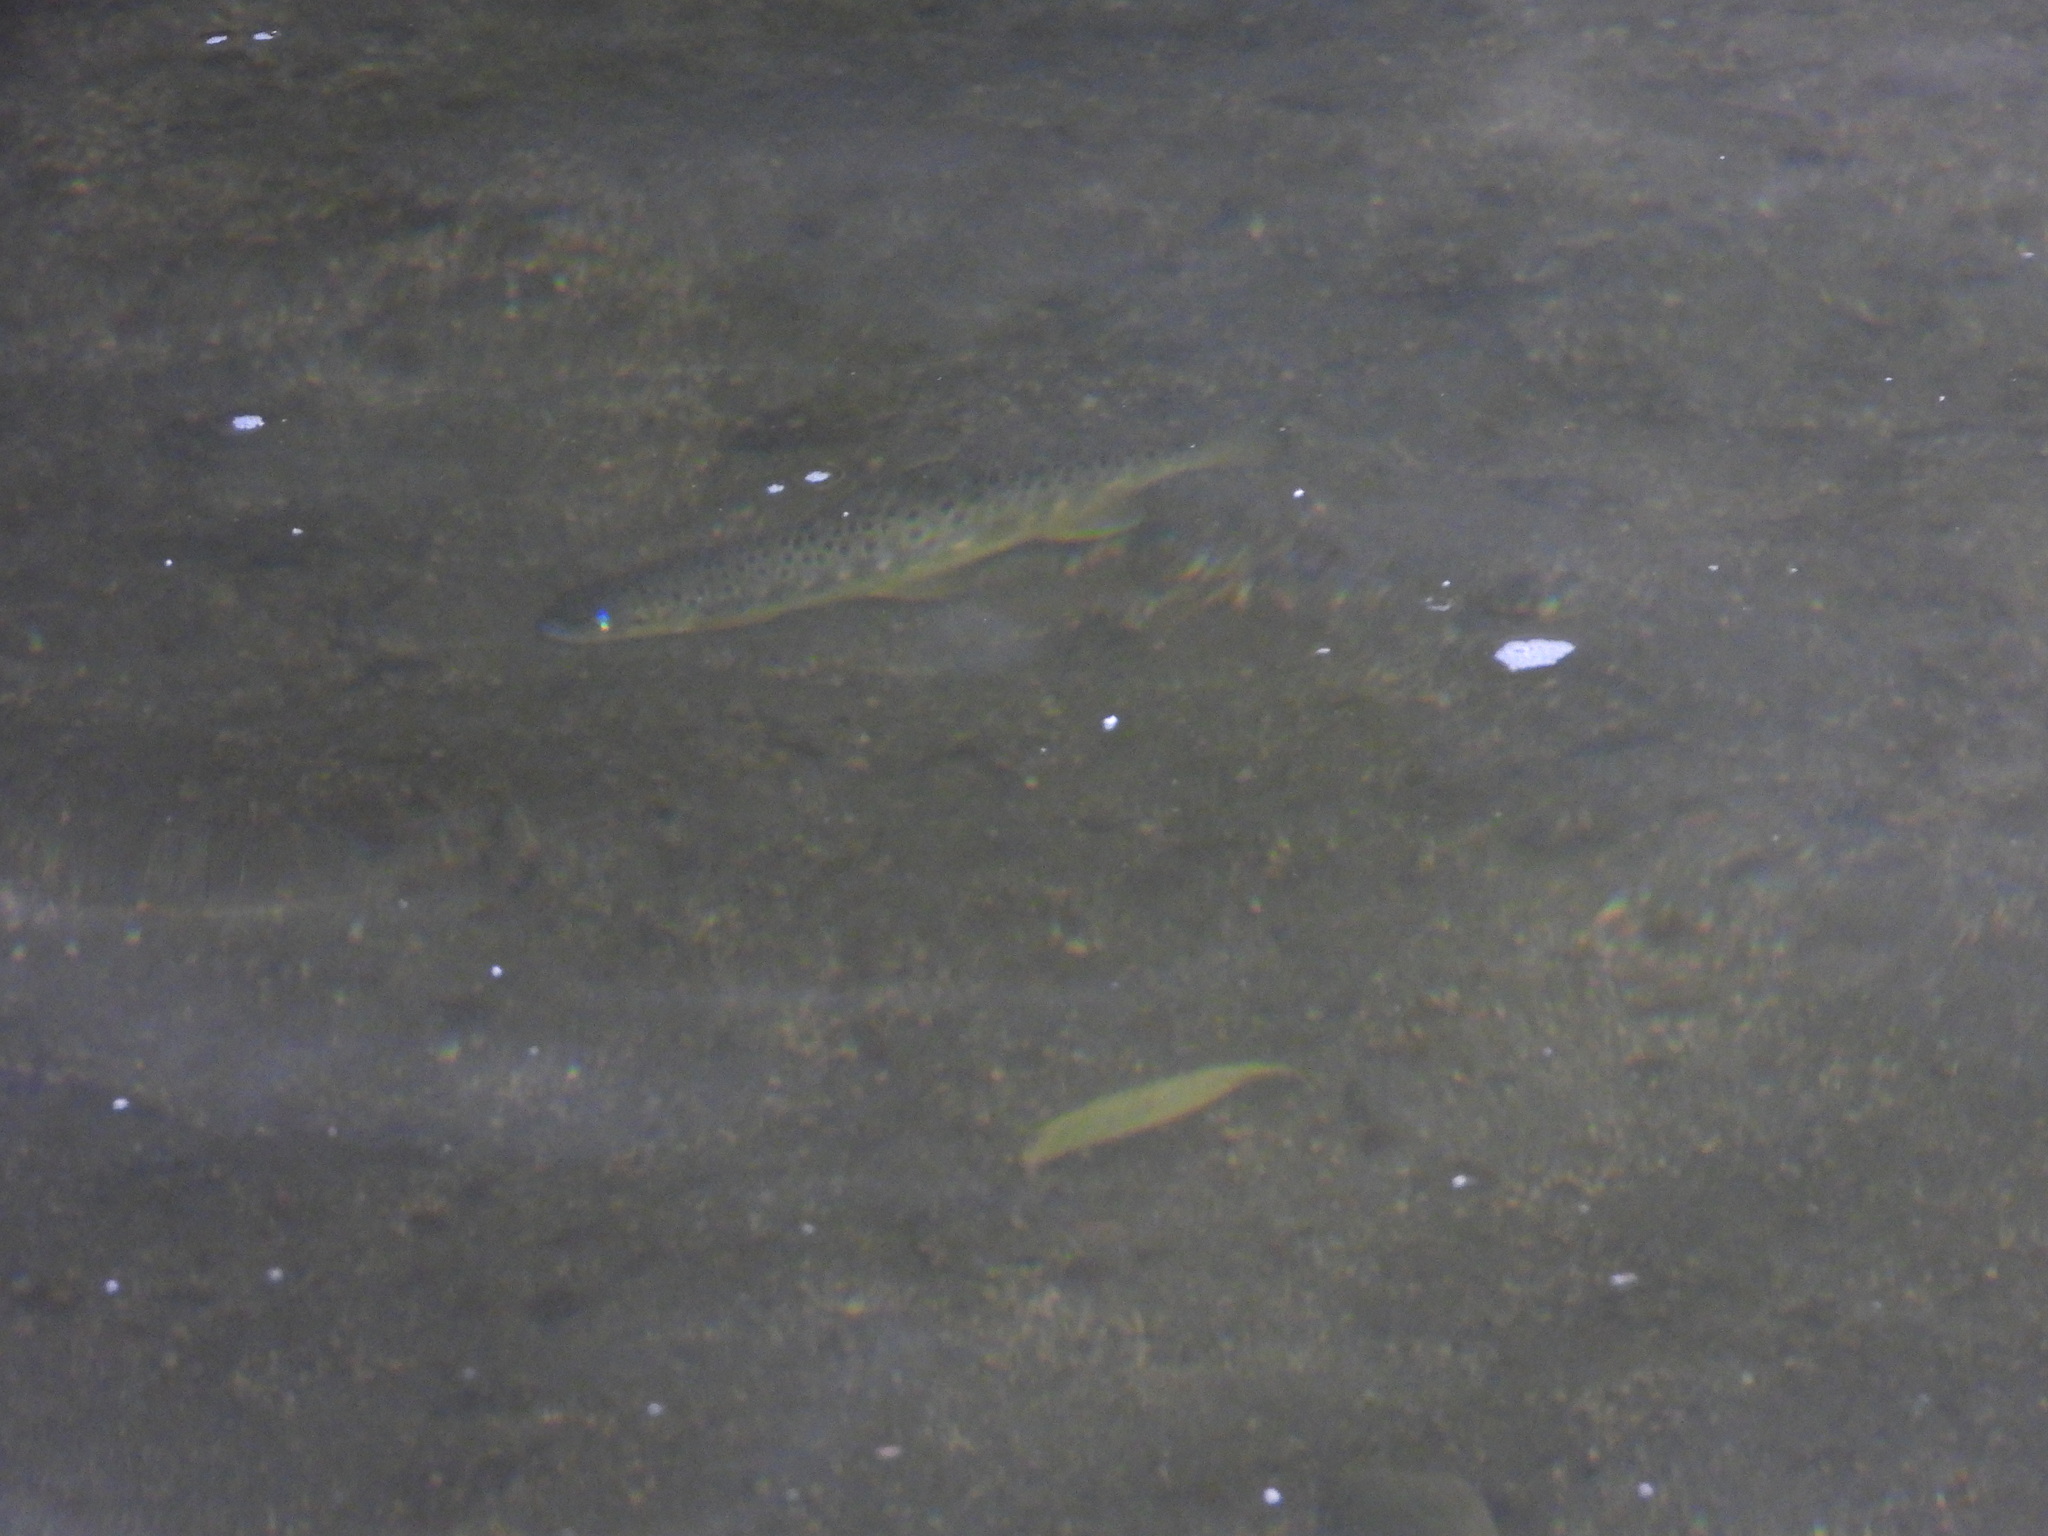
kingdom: Animalia
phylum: Chordata
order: Salmoniformes
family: Salmonidae
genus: Salmo
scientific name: Salmo trutta
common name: Brown trout
